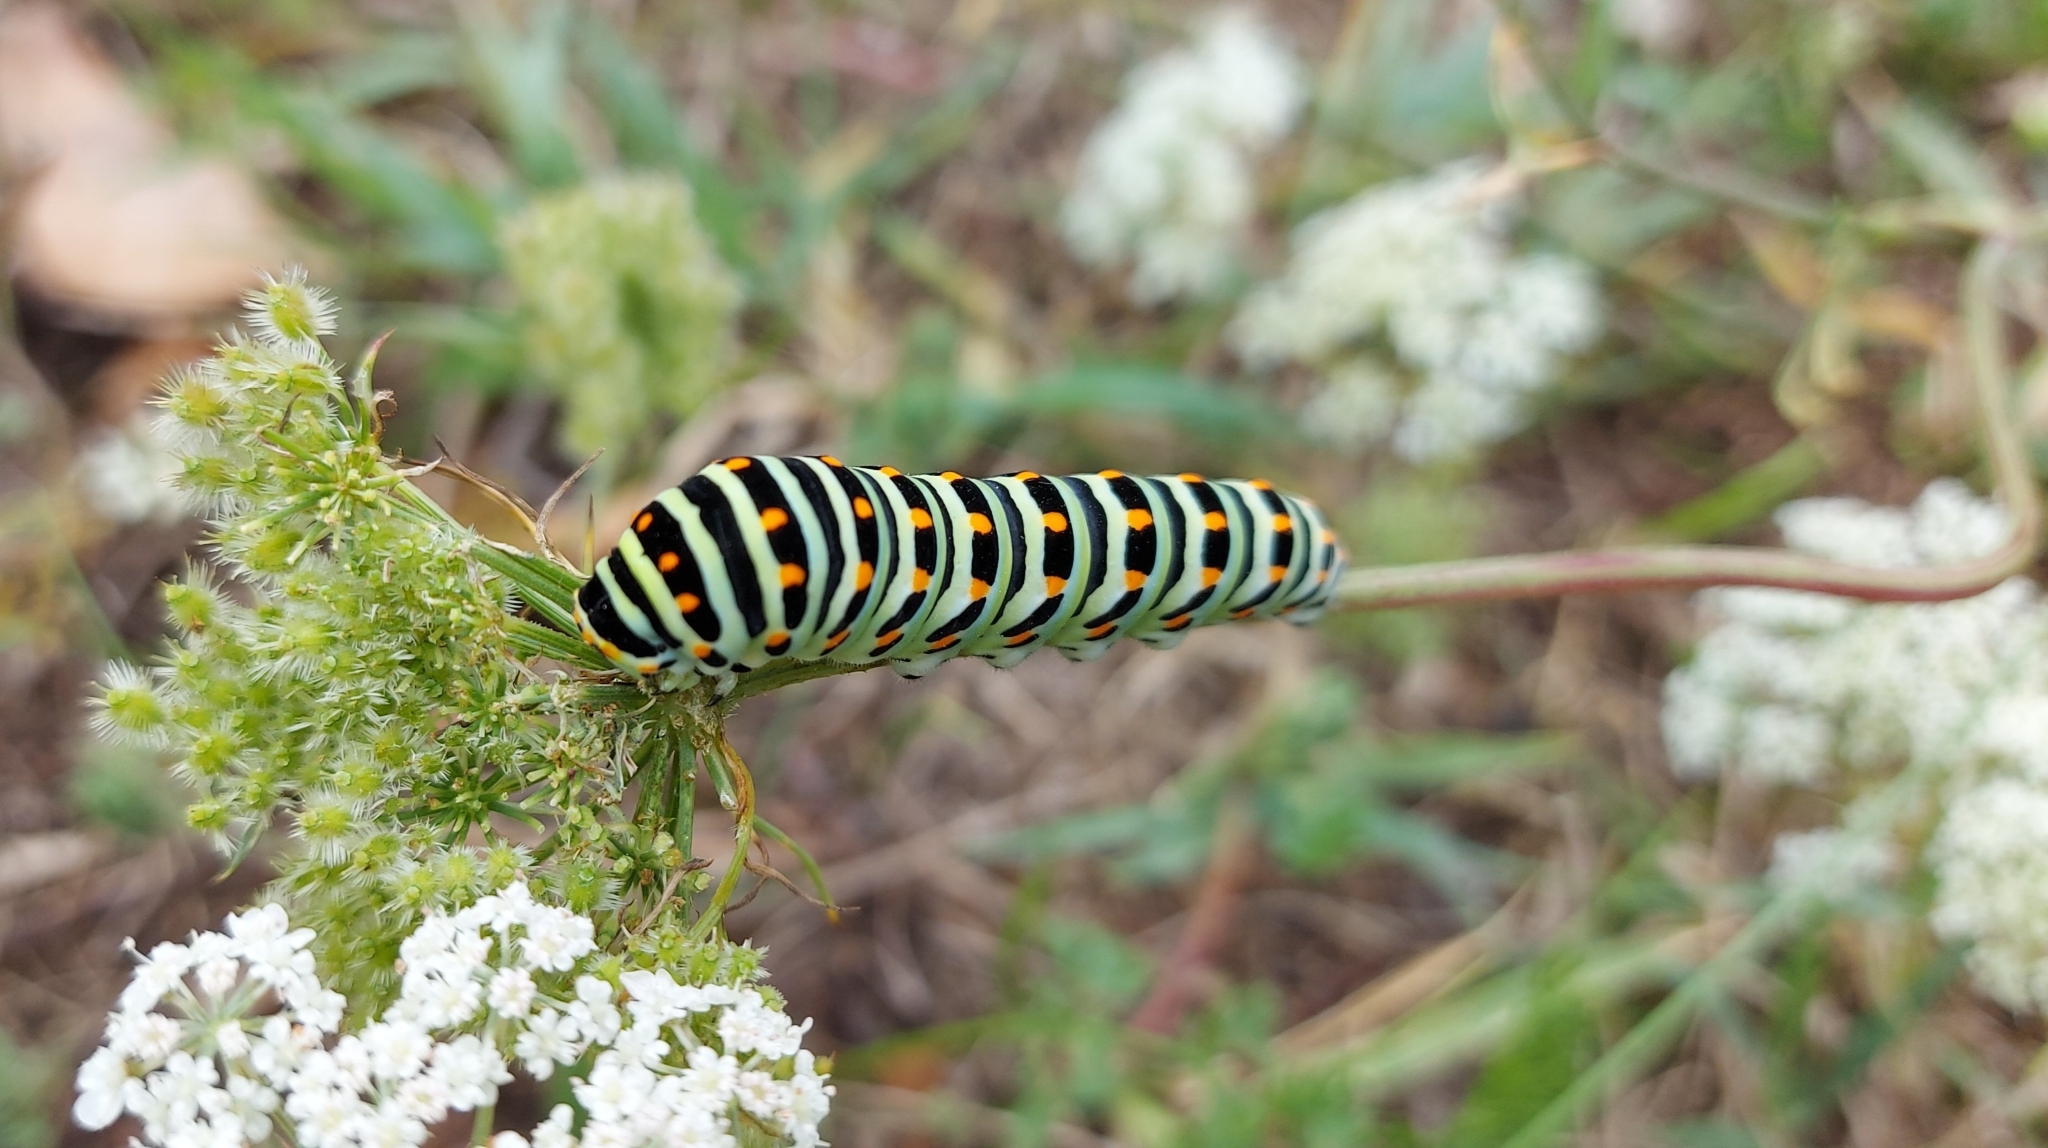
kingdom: Animalia
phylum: Arthropoda
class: Insecta
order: Lepidoptera
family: Papilionidae
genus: Papilio
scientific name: Papilio machaon
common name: Swallowtail
